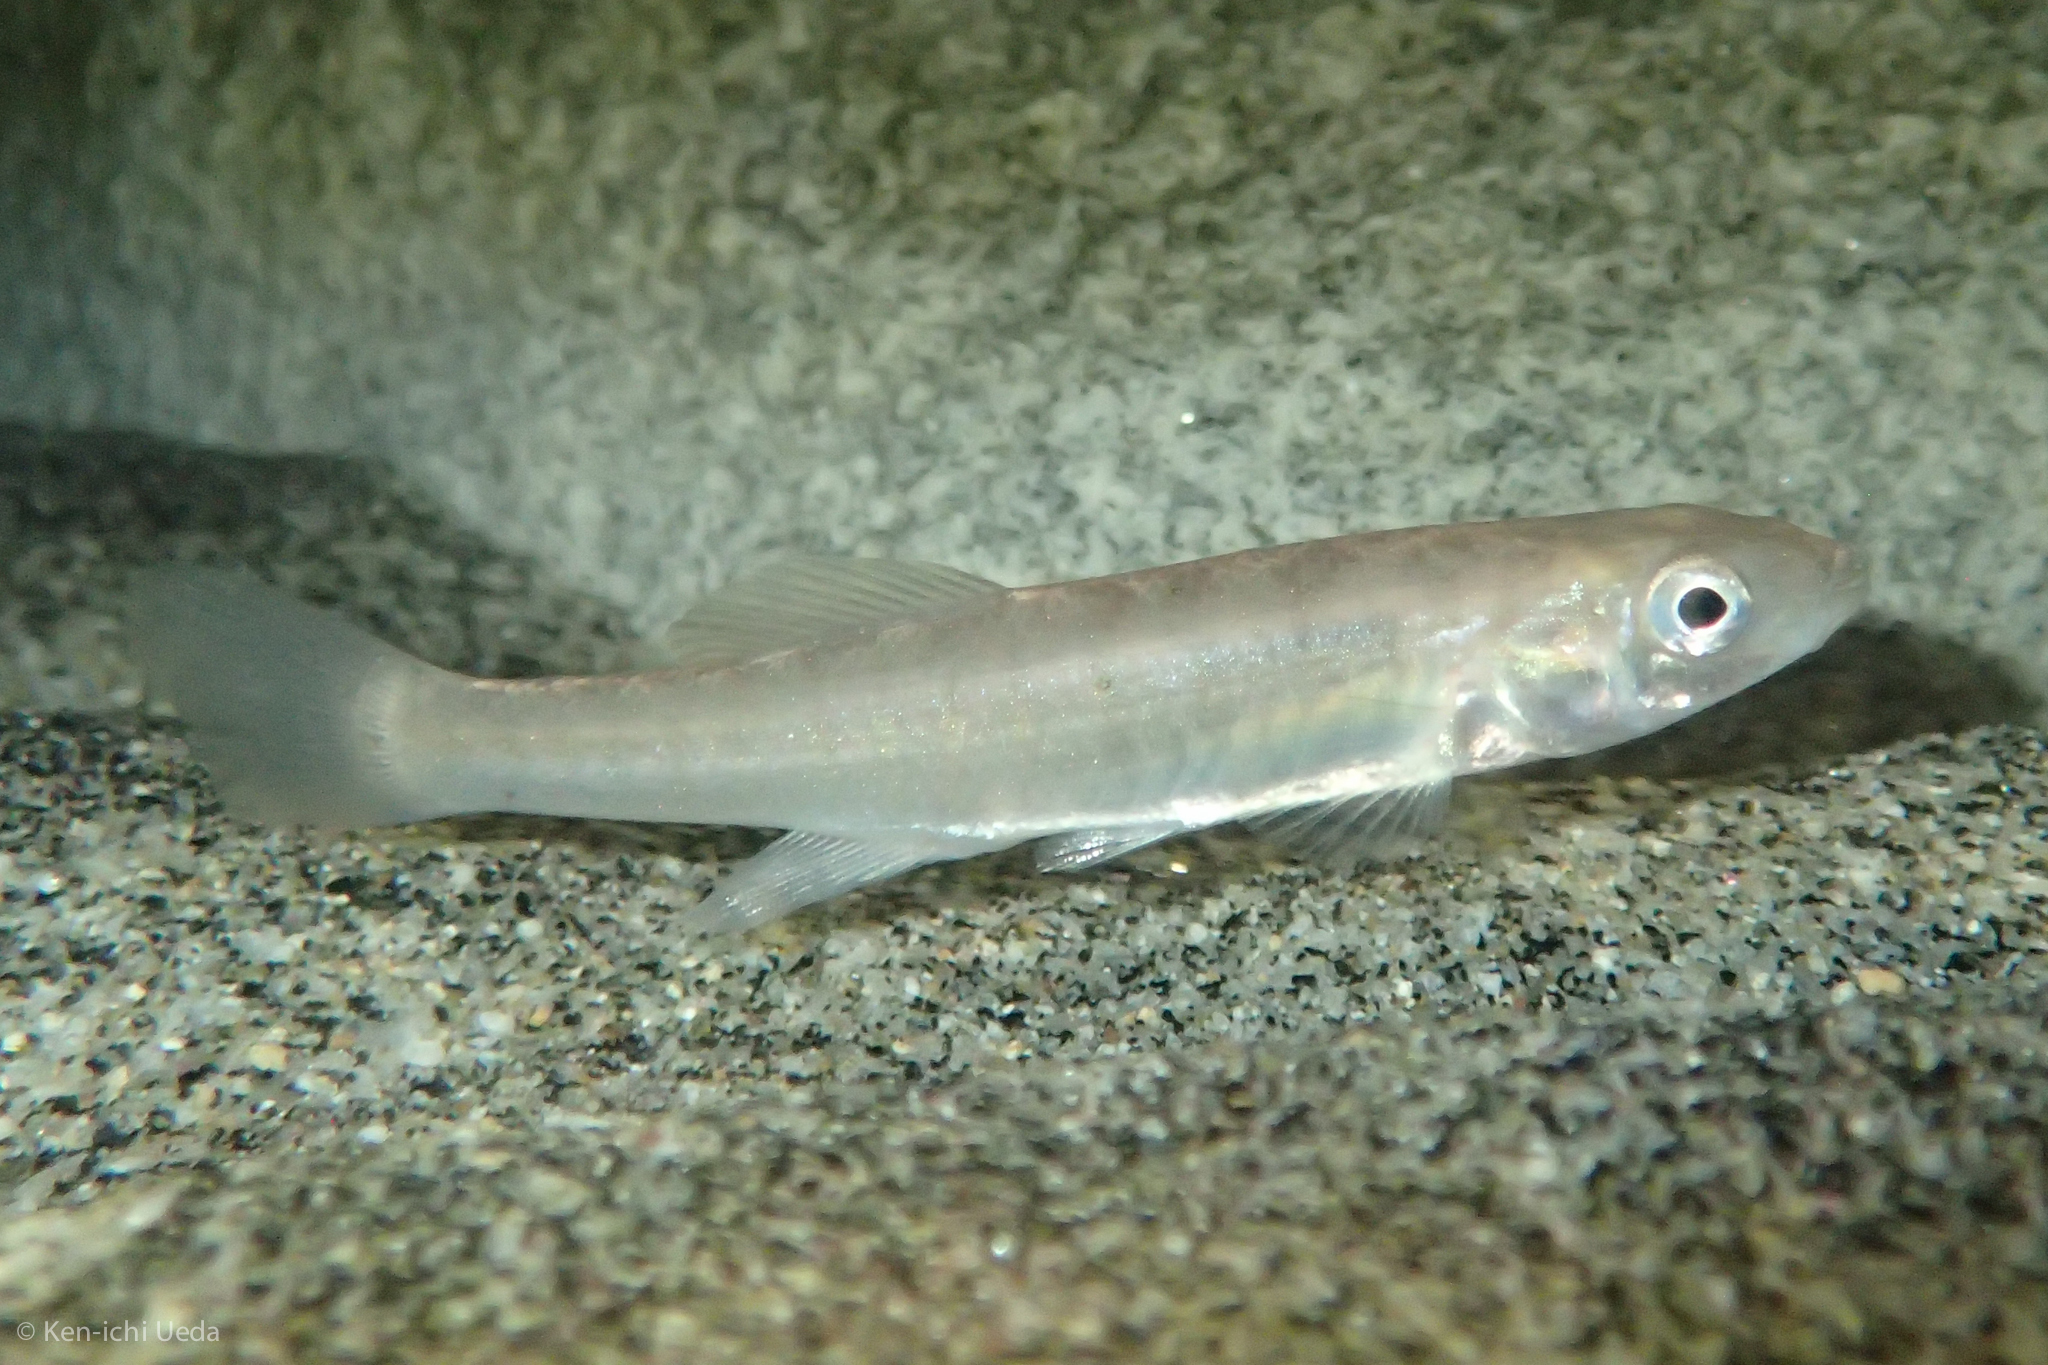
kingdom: Animalia
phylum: Chordata
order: Cyprinodontiformes
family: Fundulidae
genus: Fundulus
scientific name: Fundulus diaphanus
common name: Banded killifish
